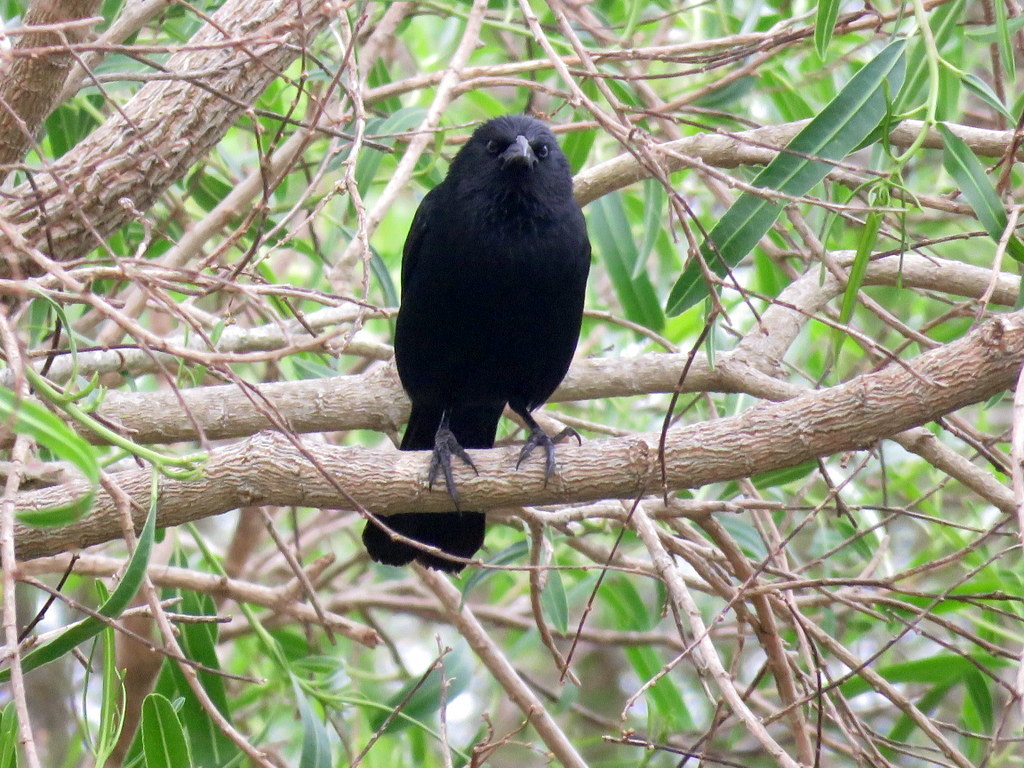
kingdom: Animalia
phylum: Chordata
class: Aves
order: Passeriformes
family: Icteridae
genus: Gnorimopsar
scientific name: Gnorimopsar chopi
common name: Chopi blackbird
